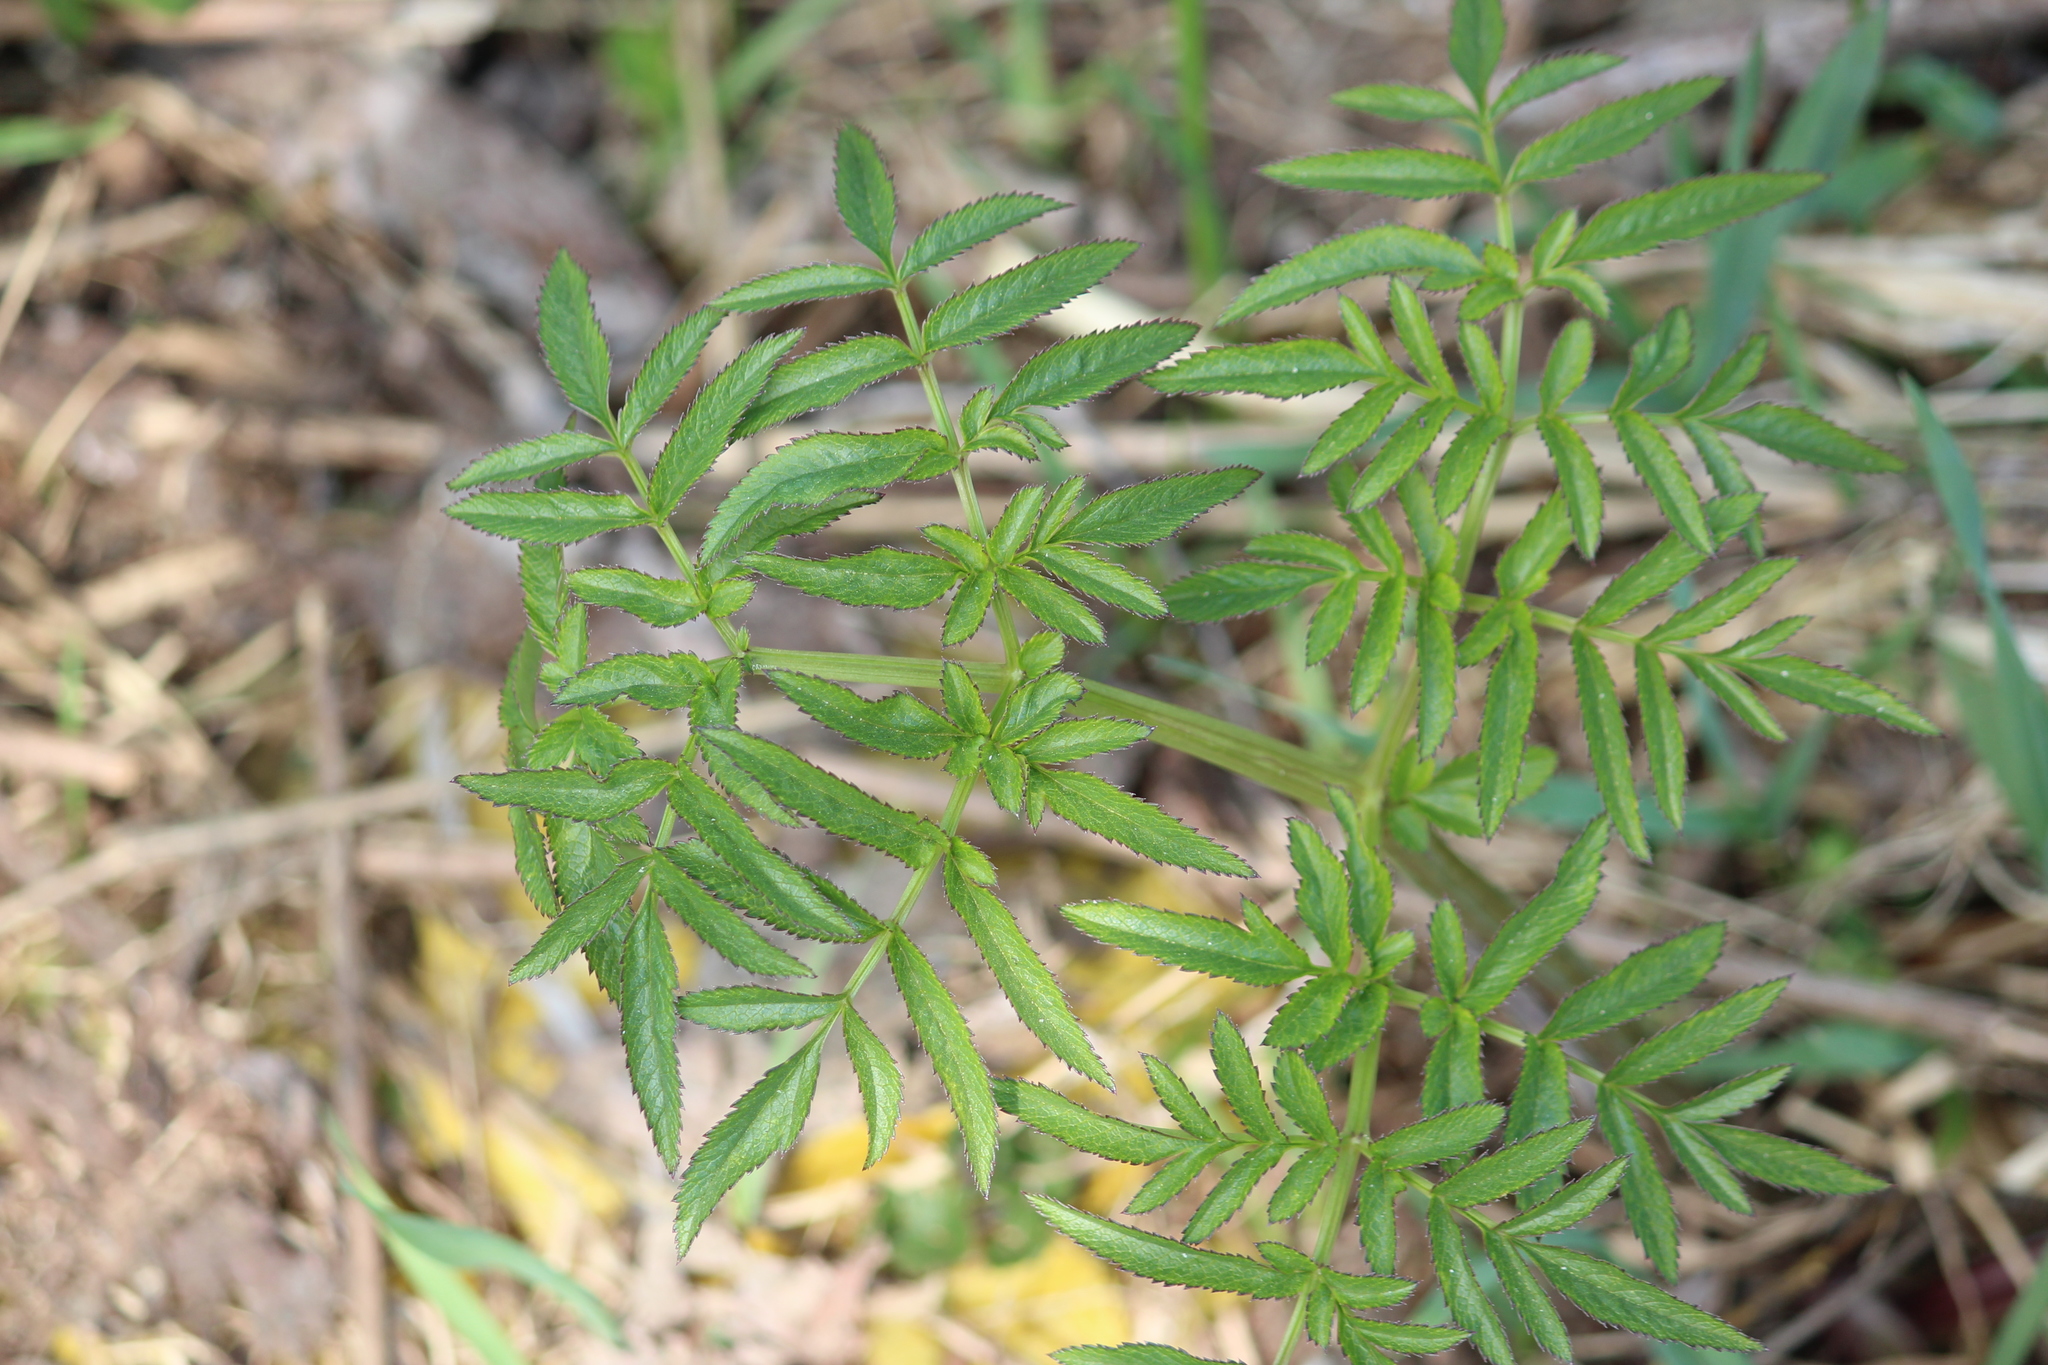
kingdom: Plantae
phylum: Tracheophyta
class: Magnoliopsida
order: Apiales
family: Apiaceae
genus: Angelica
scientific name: Angelica sylvestris
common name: Wild angelica
